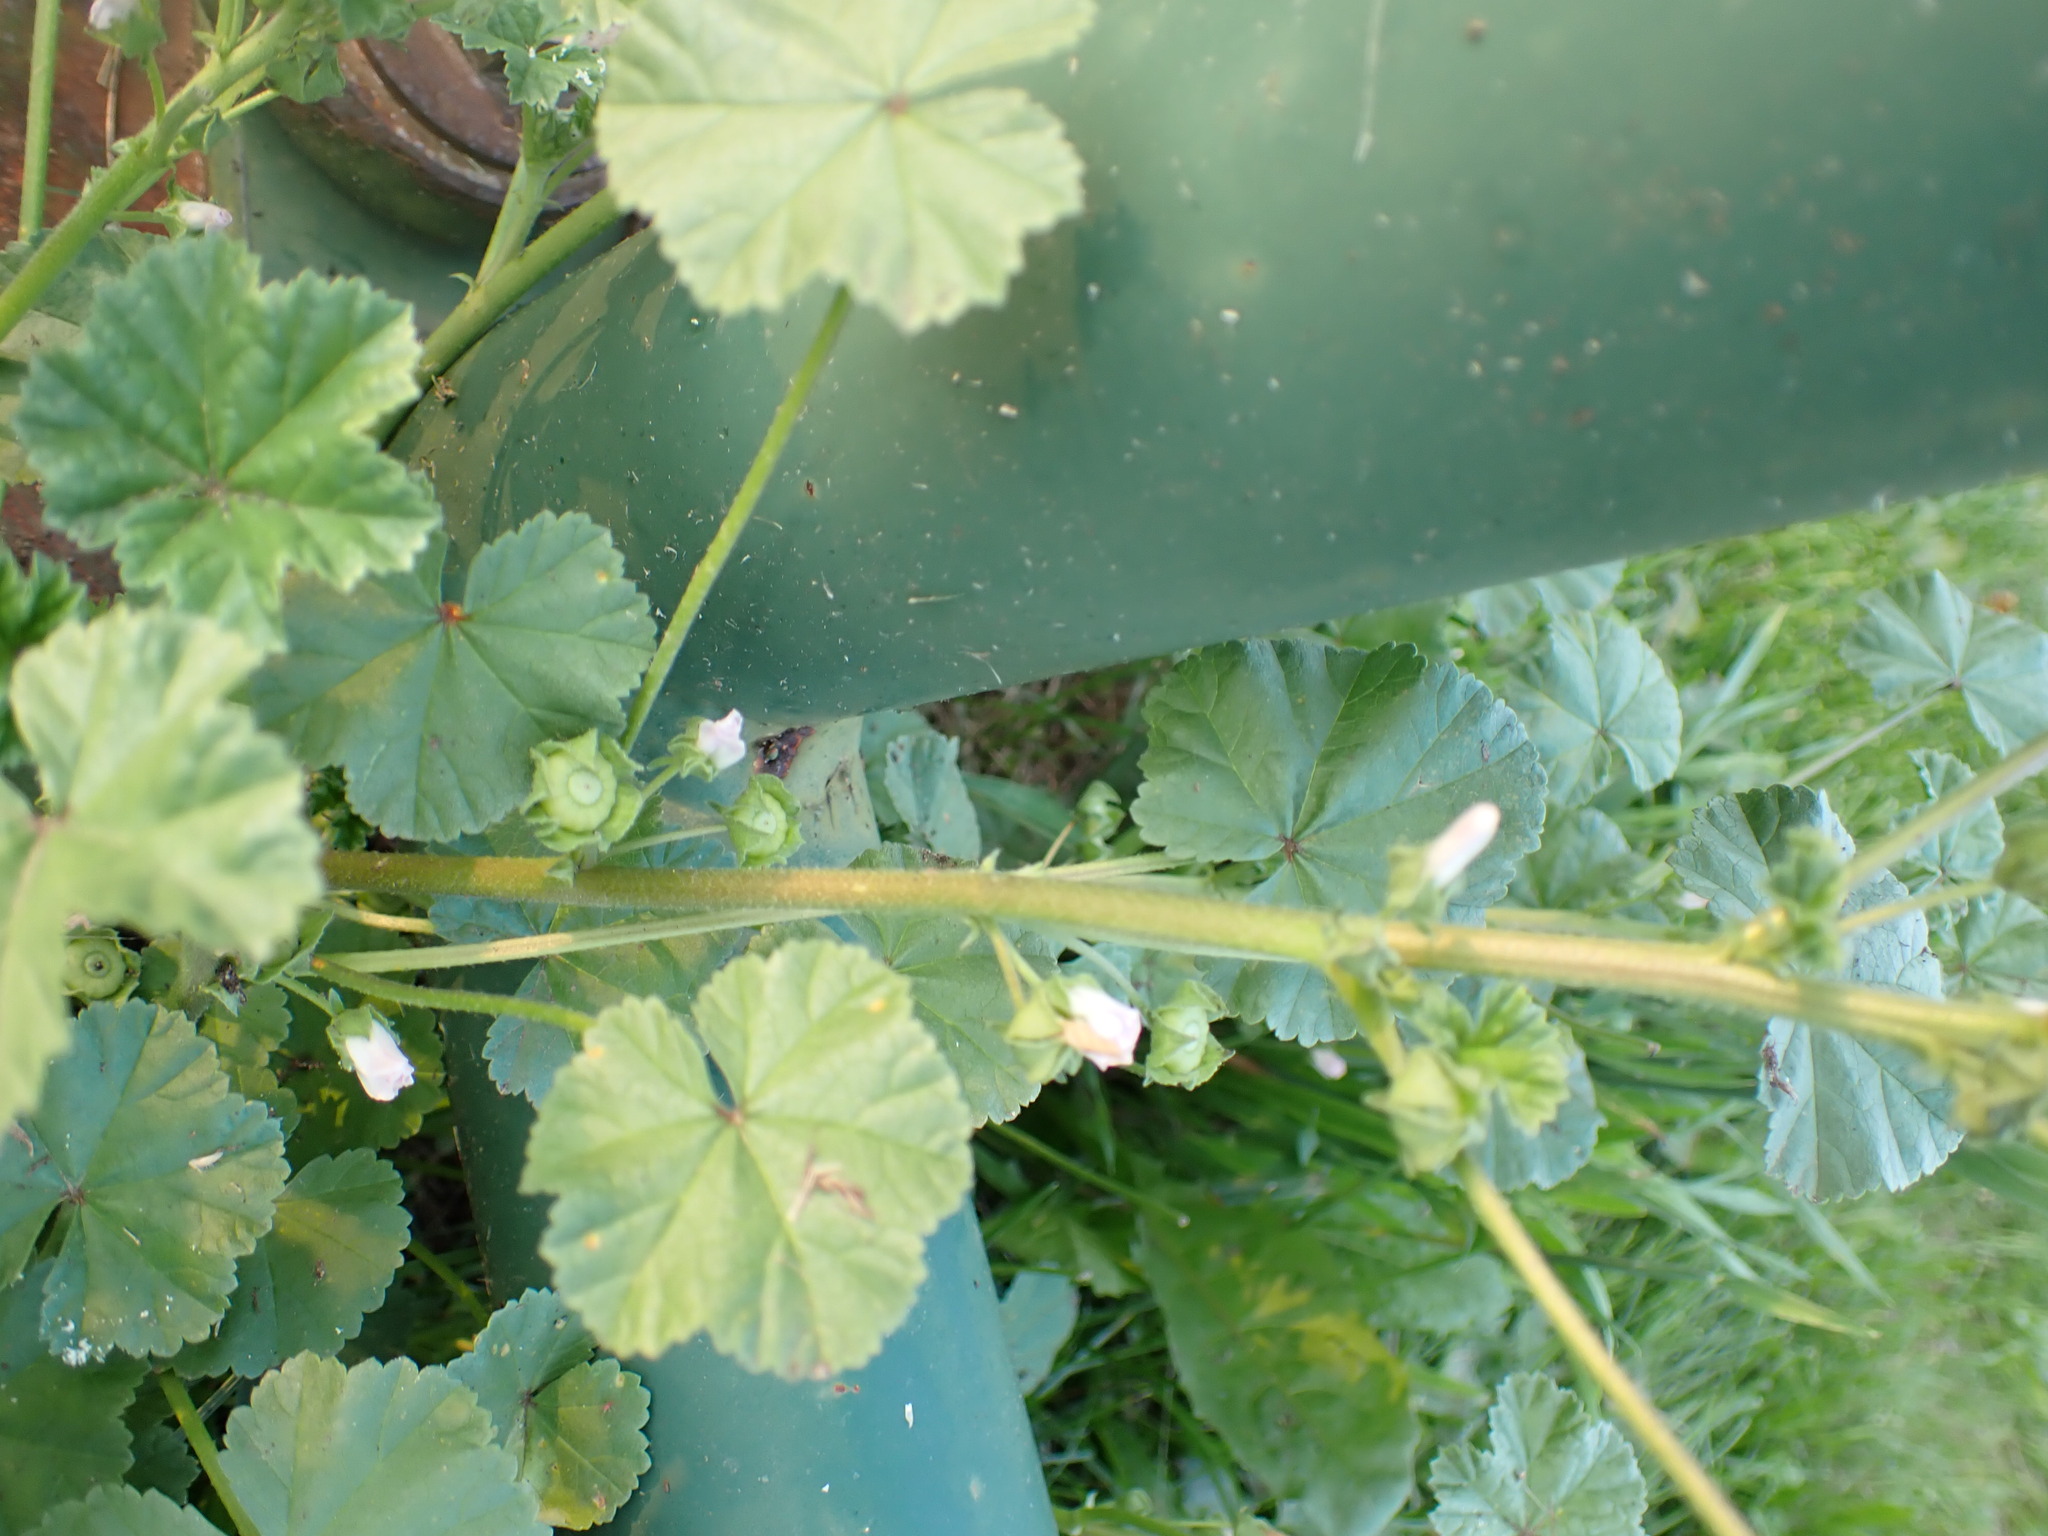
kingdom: Plantae
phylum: Tracheophyta
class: Magnoliopsida
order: Malvales
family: Malvaceae
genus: Malva
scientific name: Malva neglecta
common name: Common mallow
